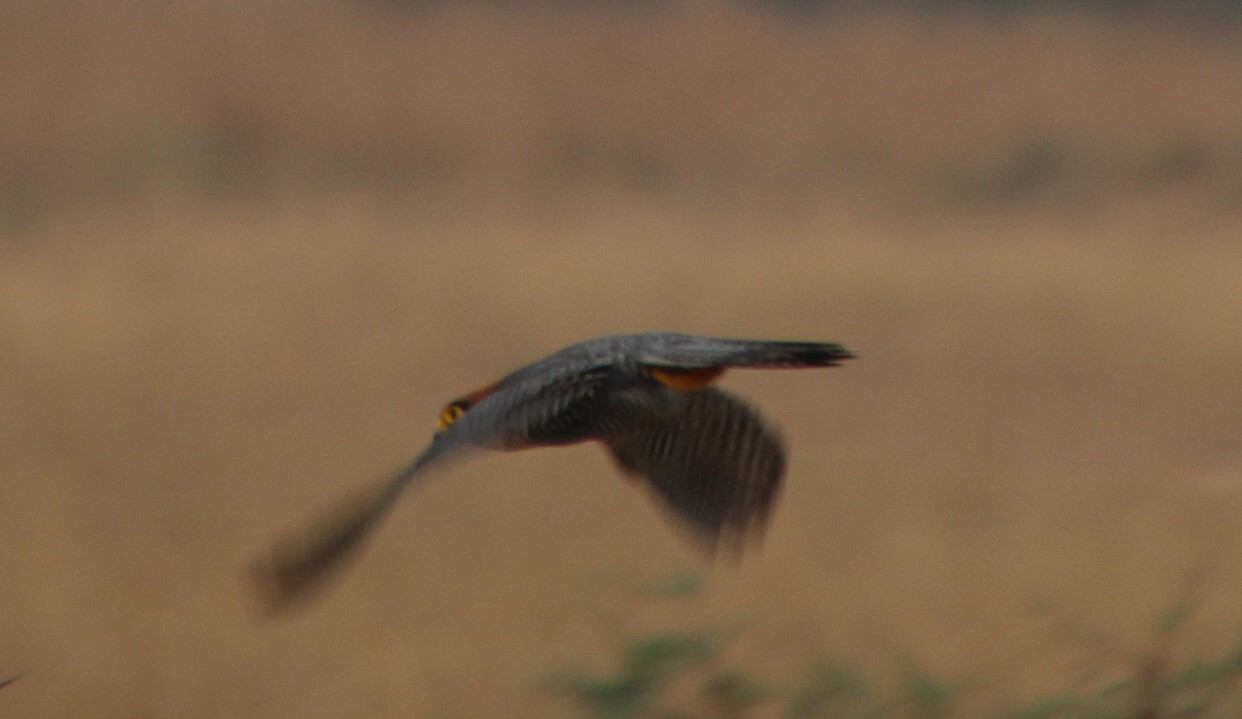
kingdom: Animalia
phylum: Chordata
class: Aves
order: Falconiformes
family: Falconidae
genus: Falco
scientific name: Falco chicquera
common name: Red-necked falcon
